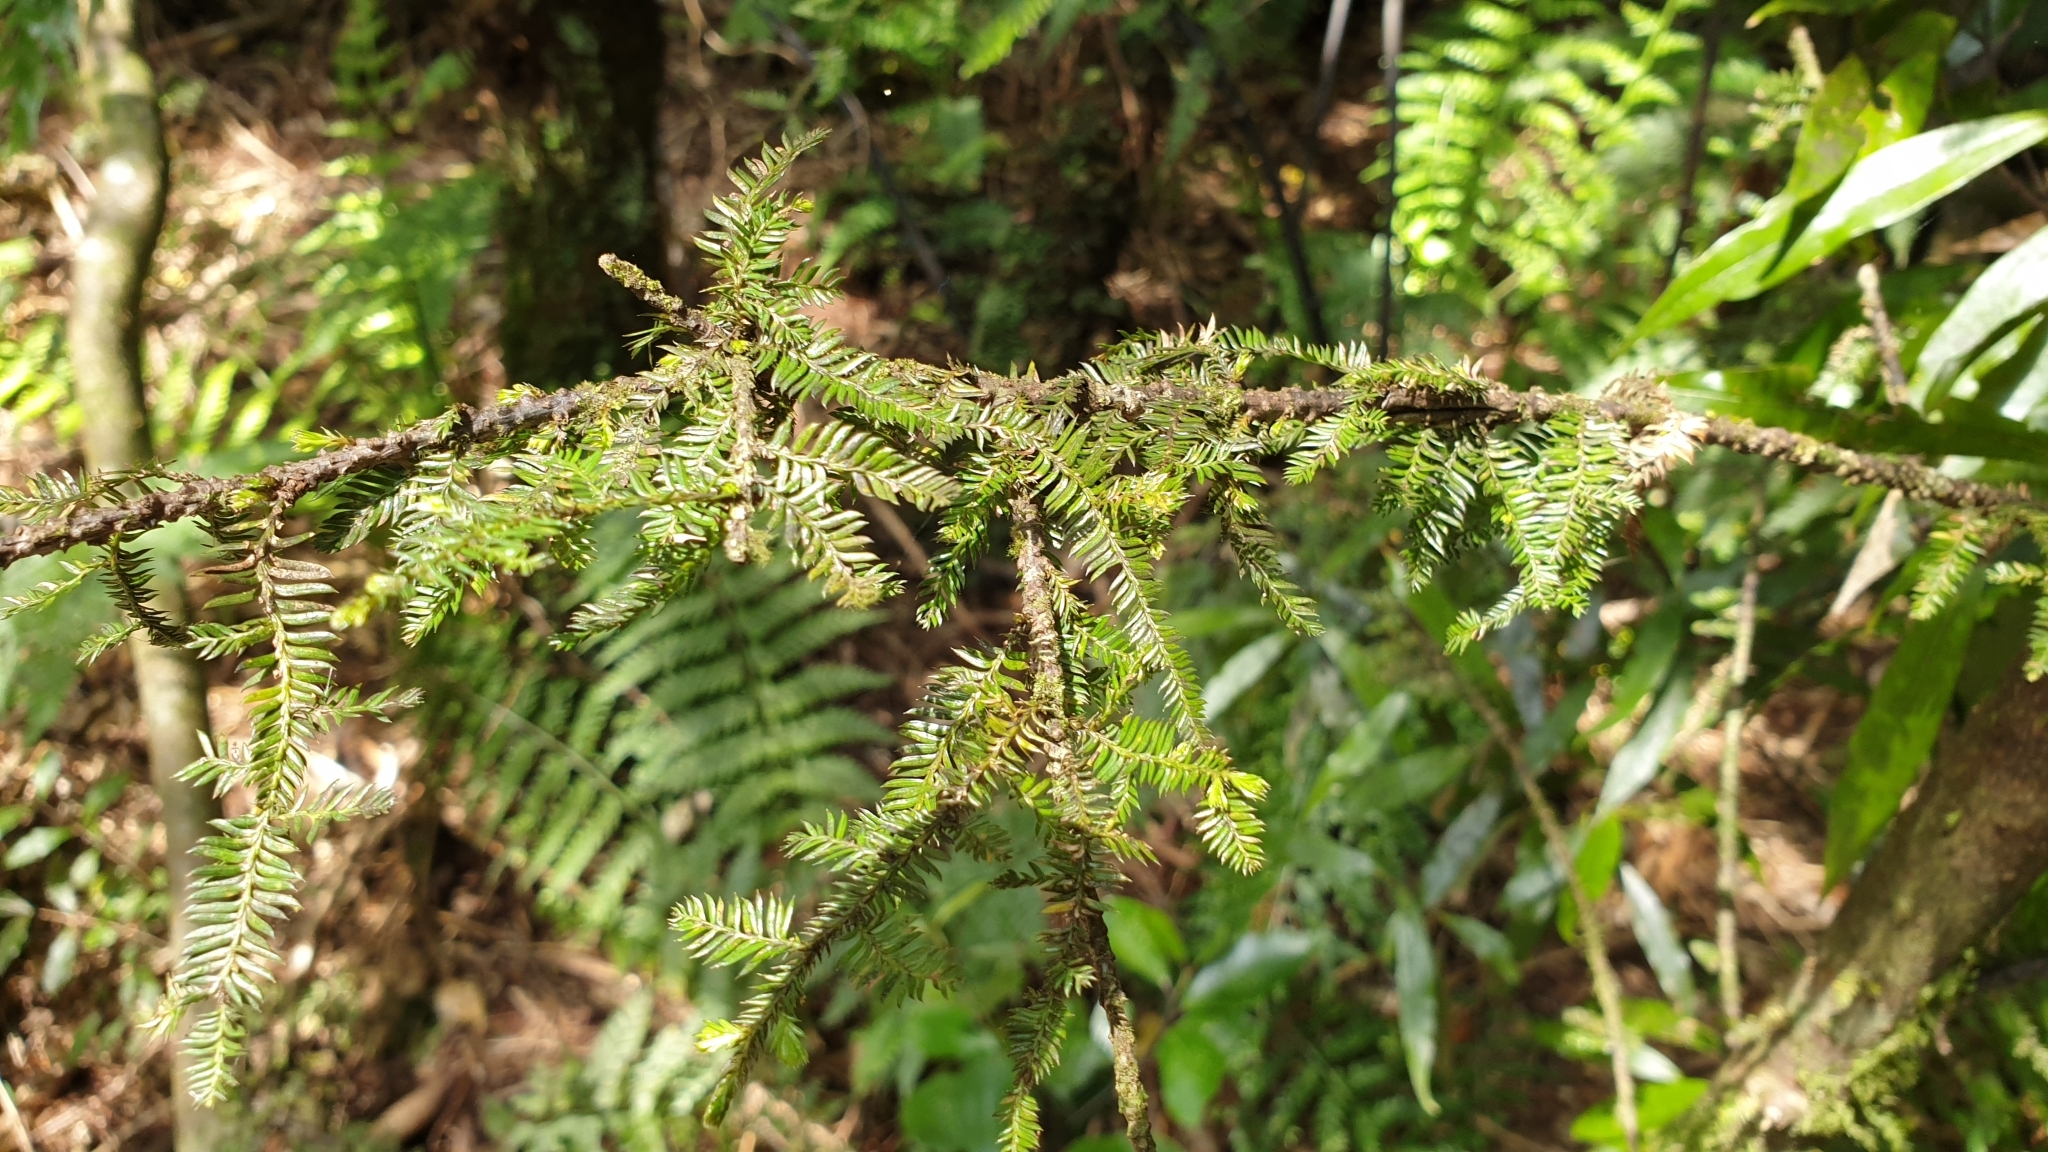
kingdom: Plantae
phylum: Tracheophyta
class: Pinopsida
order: Pinales
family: Podocarpaceae
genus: Dacrycarpus
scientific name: Dacrycarpus dacrydioides
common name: White pine
